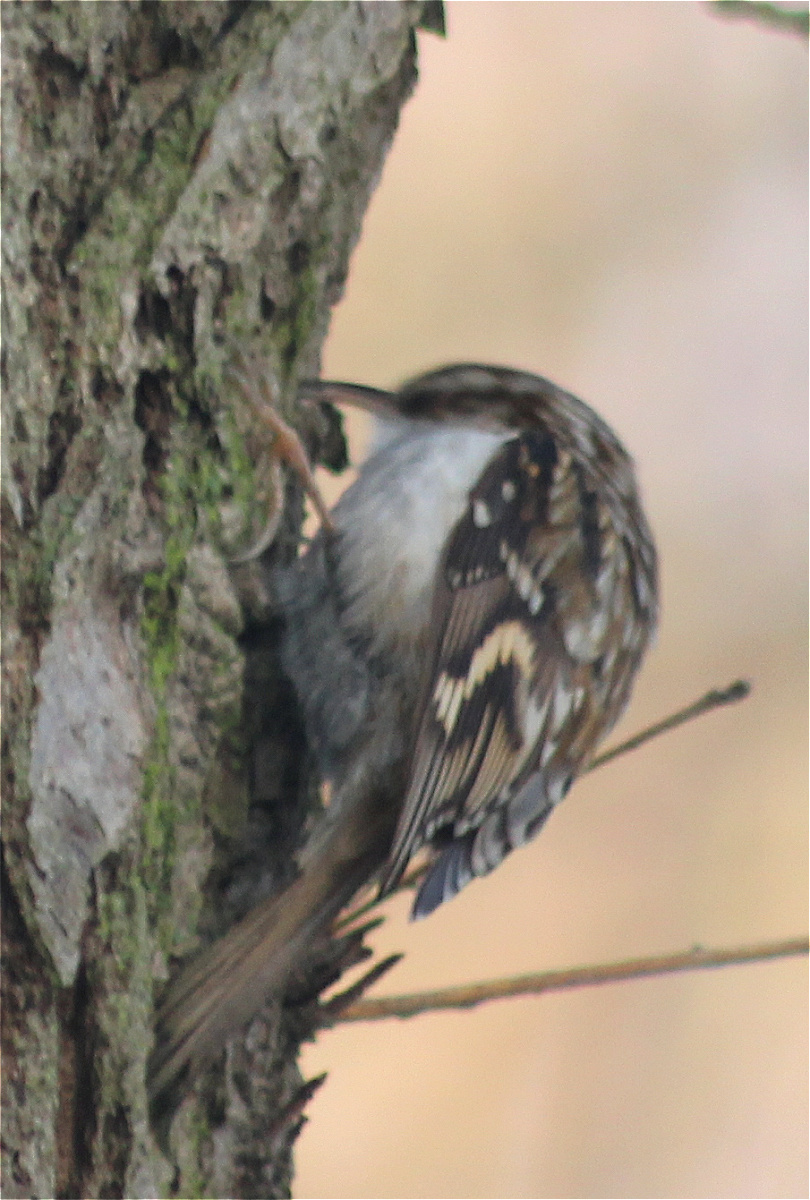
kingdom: Animalia
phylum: Chordata
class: Aves
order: Passeriformes
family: Certhiidae
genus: Certhia
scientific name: Certhia familiaris
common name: Eurasian treecreeper
